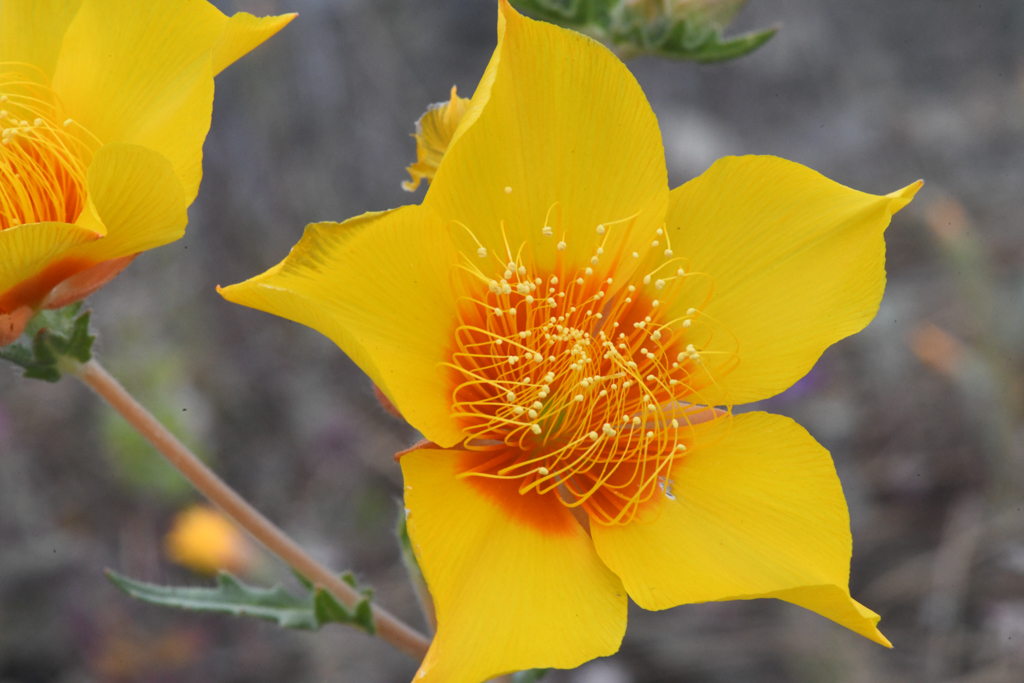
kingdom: Plantae
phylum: Tracheophyta
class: Magnoliopsida
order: Cornales
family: Loasaceae
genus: Mentzelia
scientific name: Mentzelia lindleyi
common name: Golden bartonia
